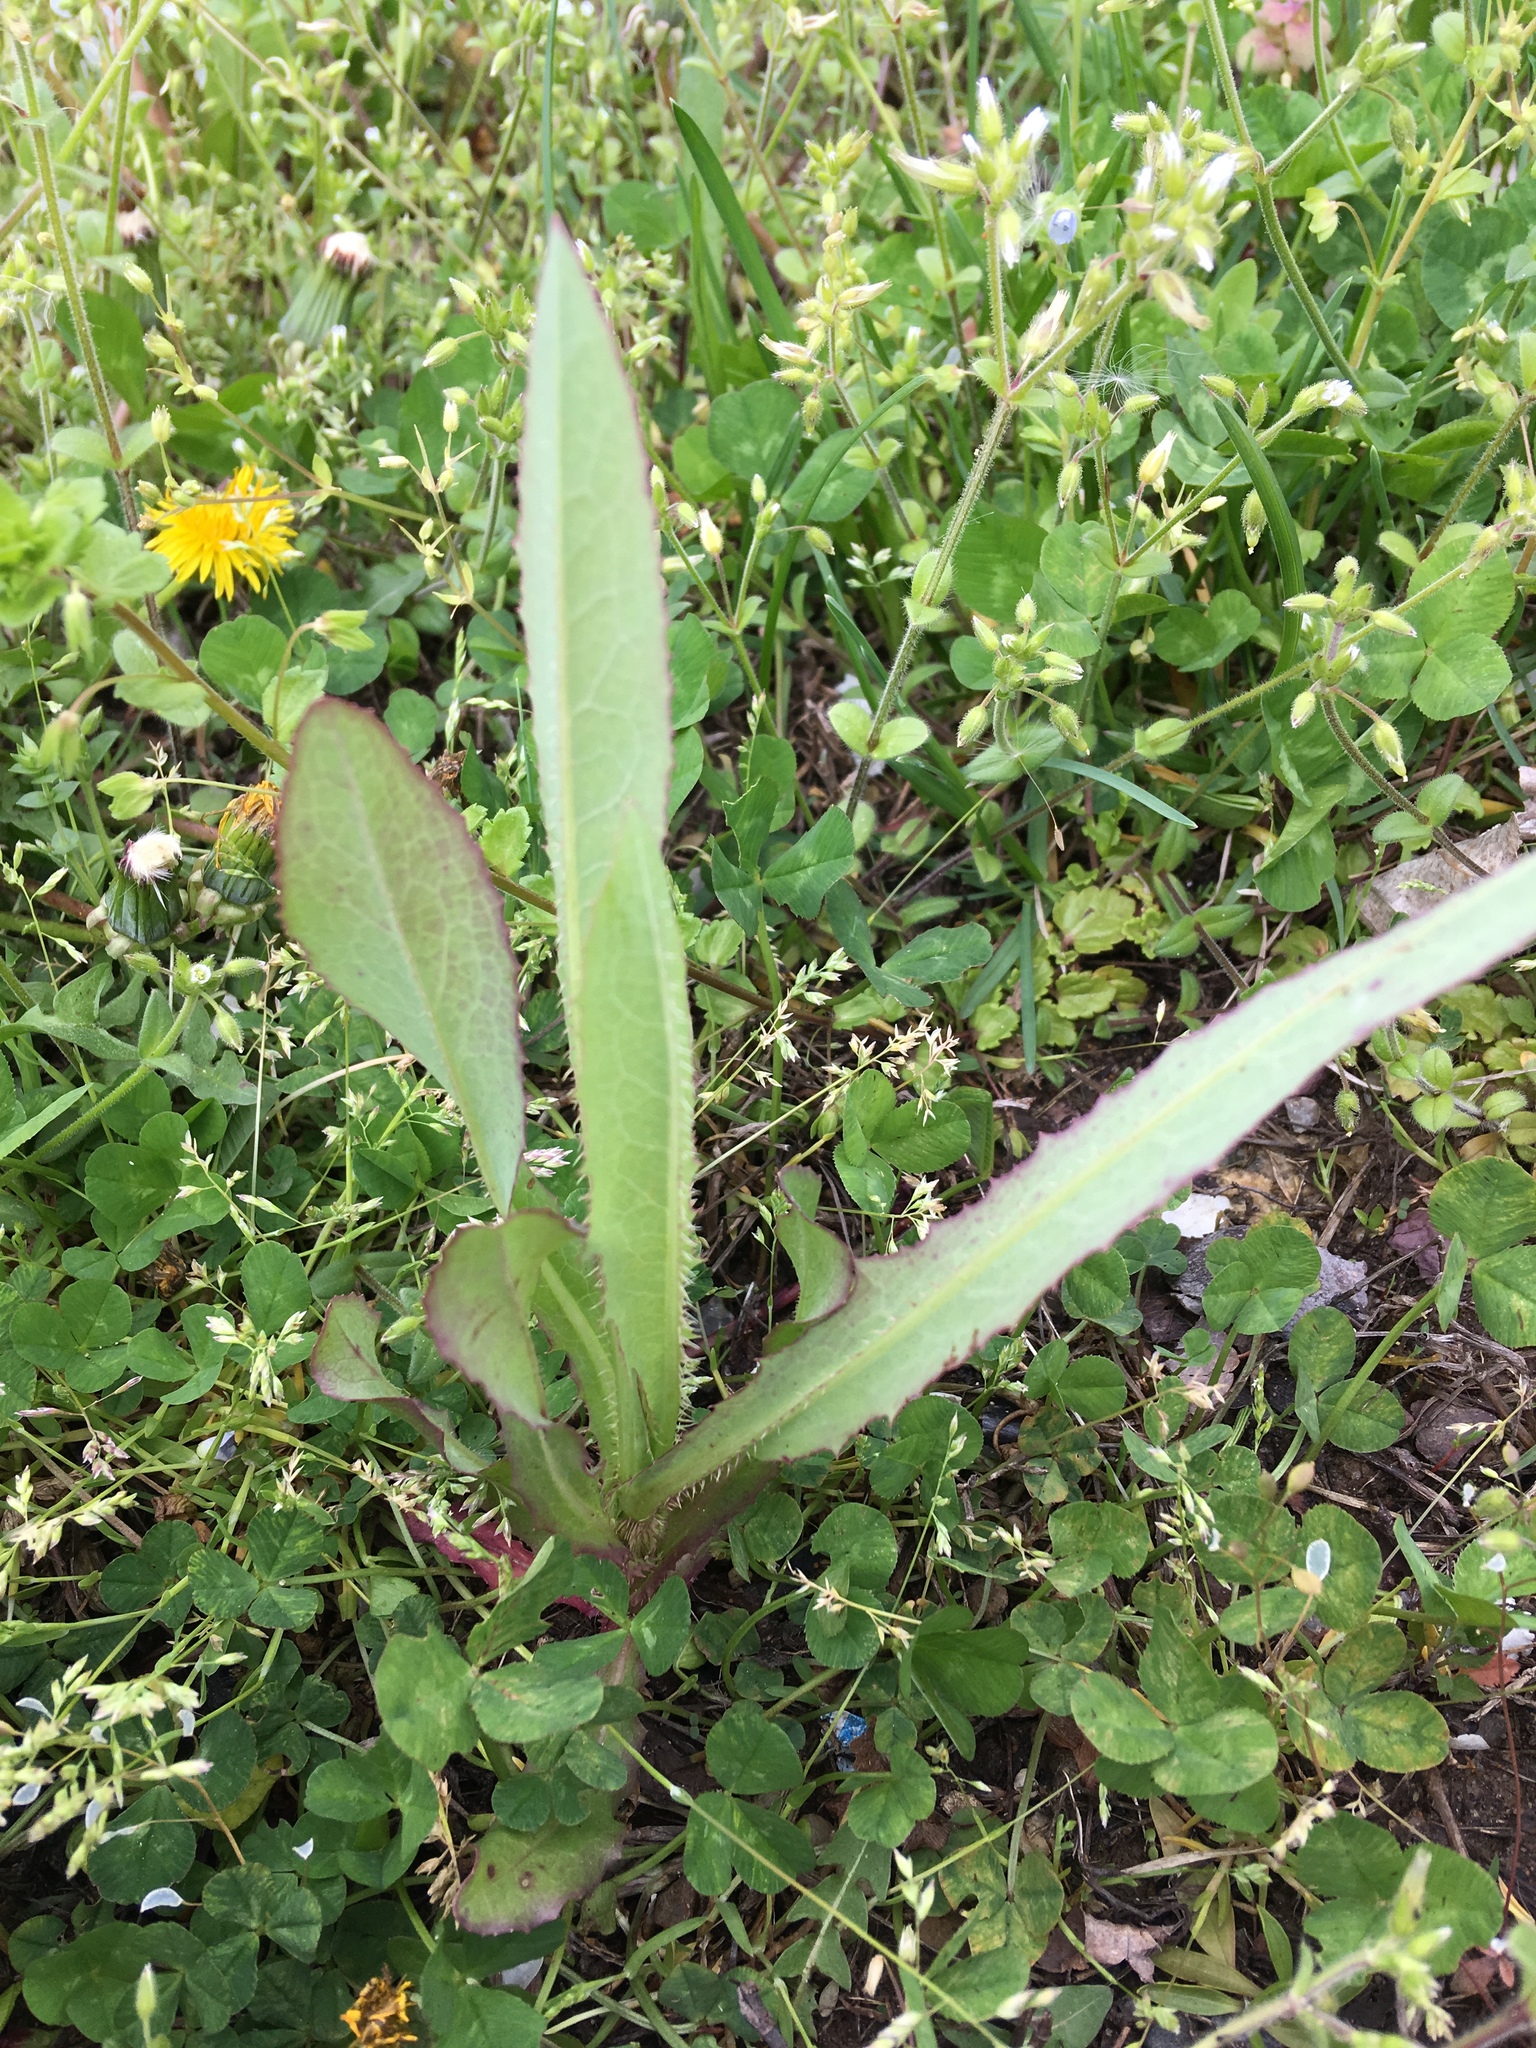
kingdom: Plantae
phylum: Tracheophyta
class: Magnoliopsida
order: Asterales
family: Asteraceae
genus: Lactuca
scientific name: Lactuca serriola
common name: Prickly lettuce
